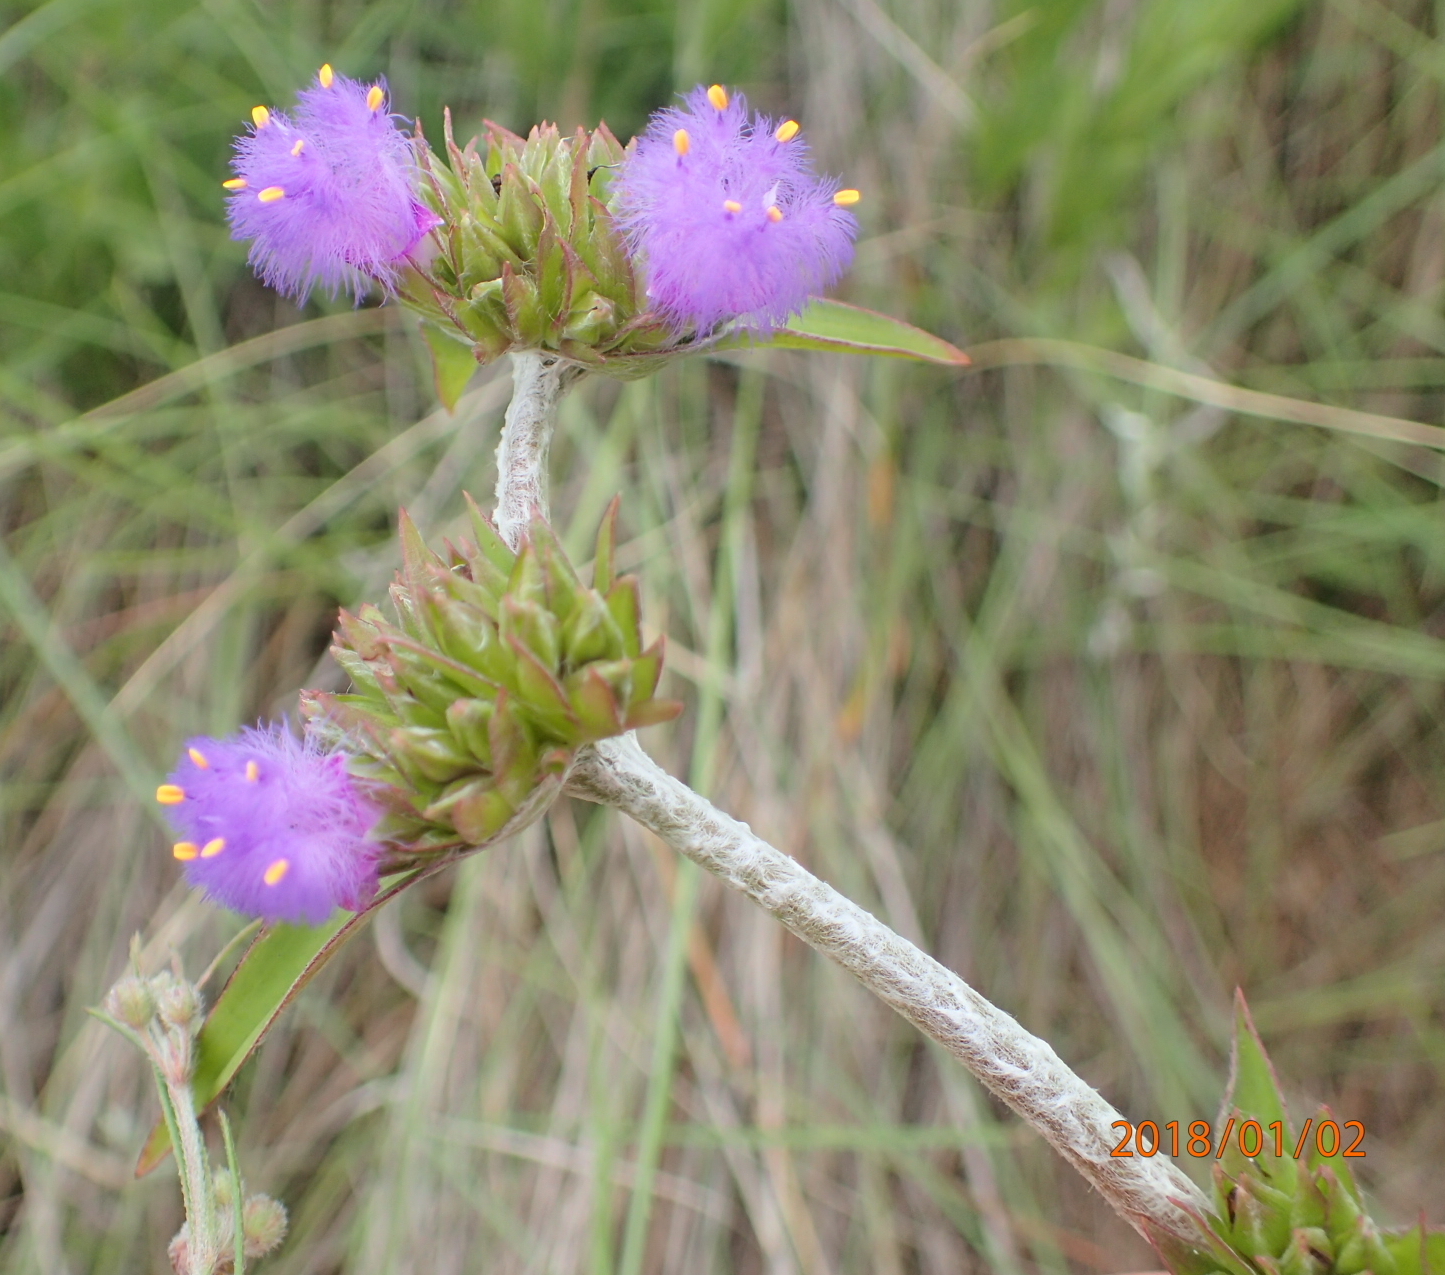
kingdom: Plantae
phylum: Tracheophyta
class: Liliopsida
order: Commelinales
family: Commelinaceae
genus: Cyanotis
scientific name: Cyanotis speciosa
